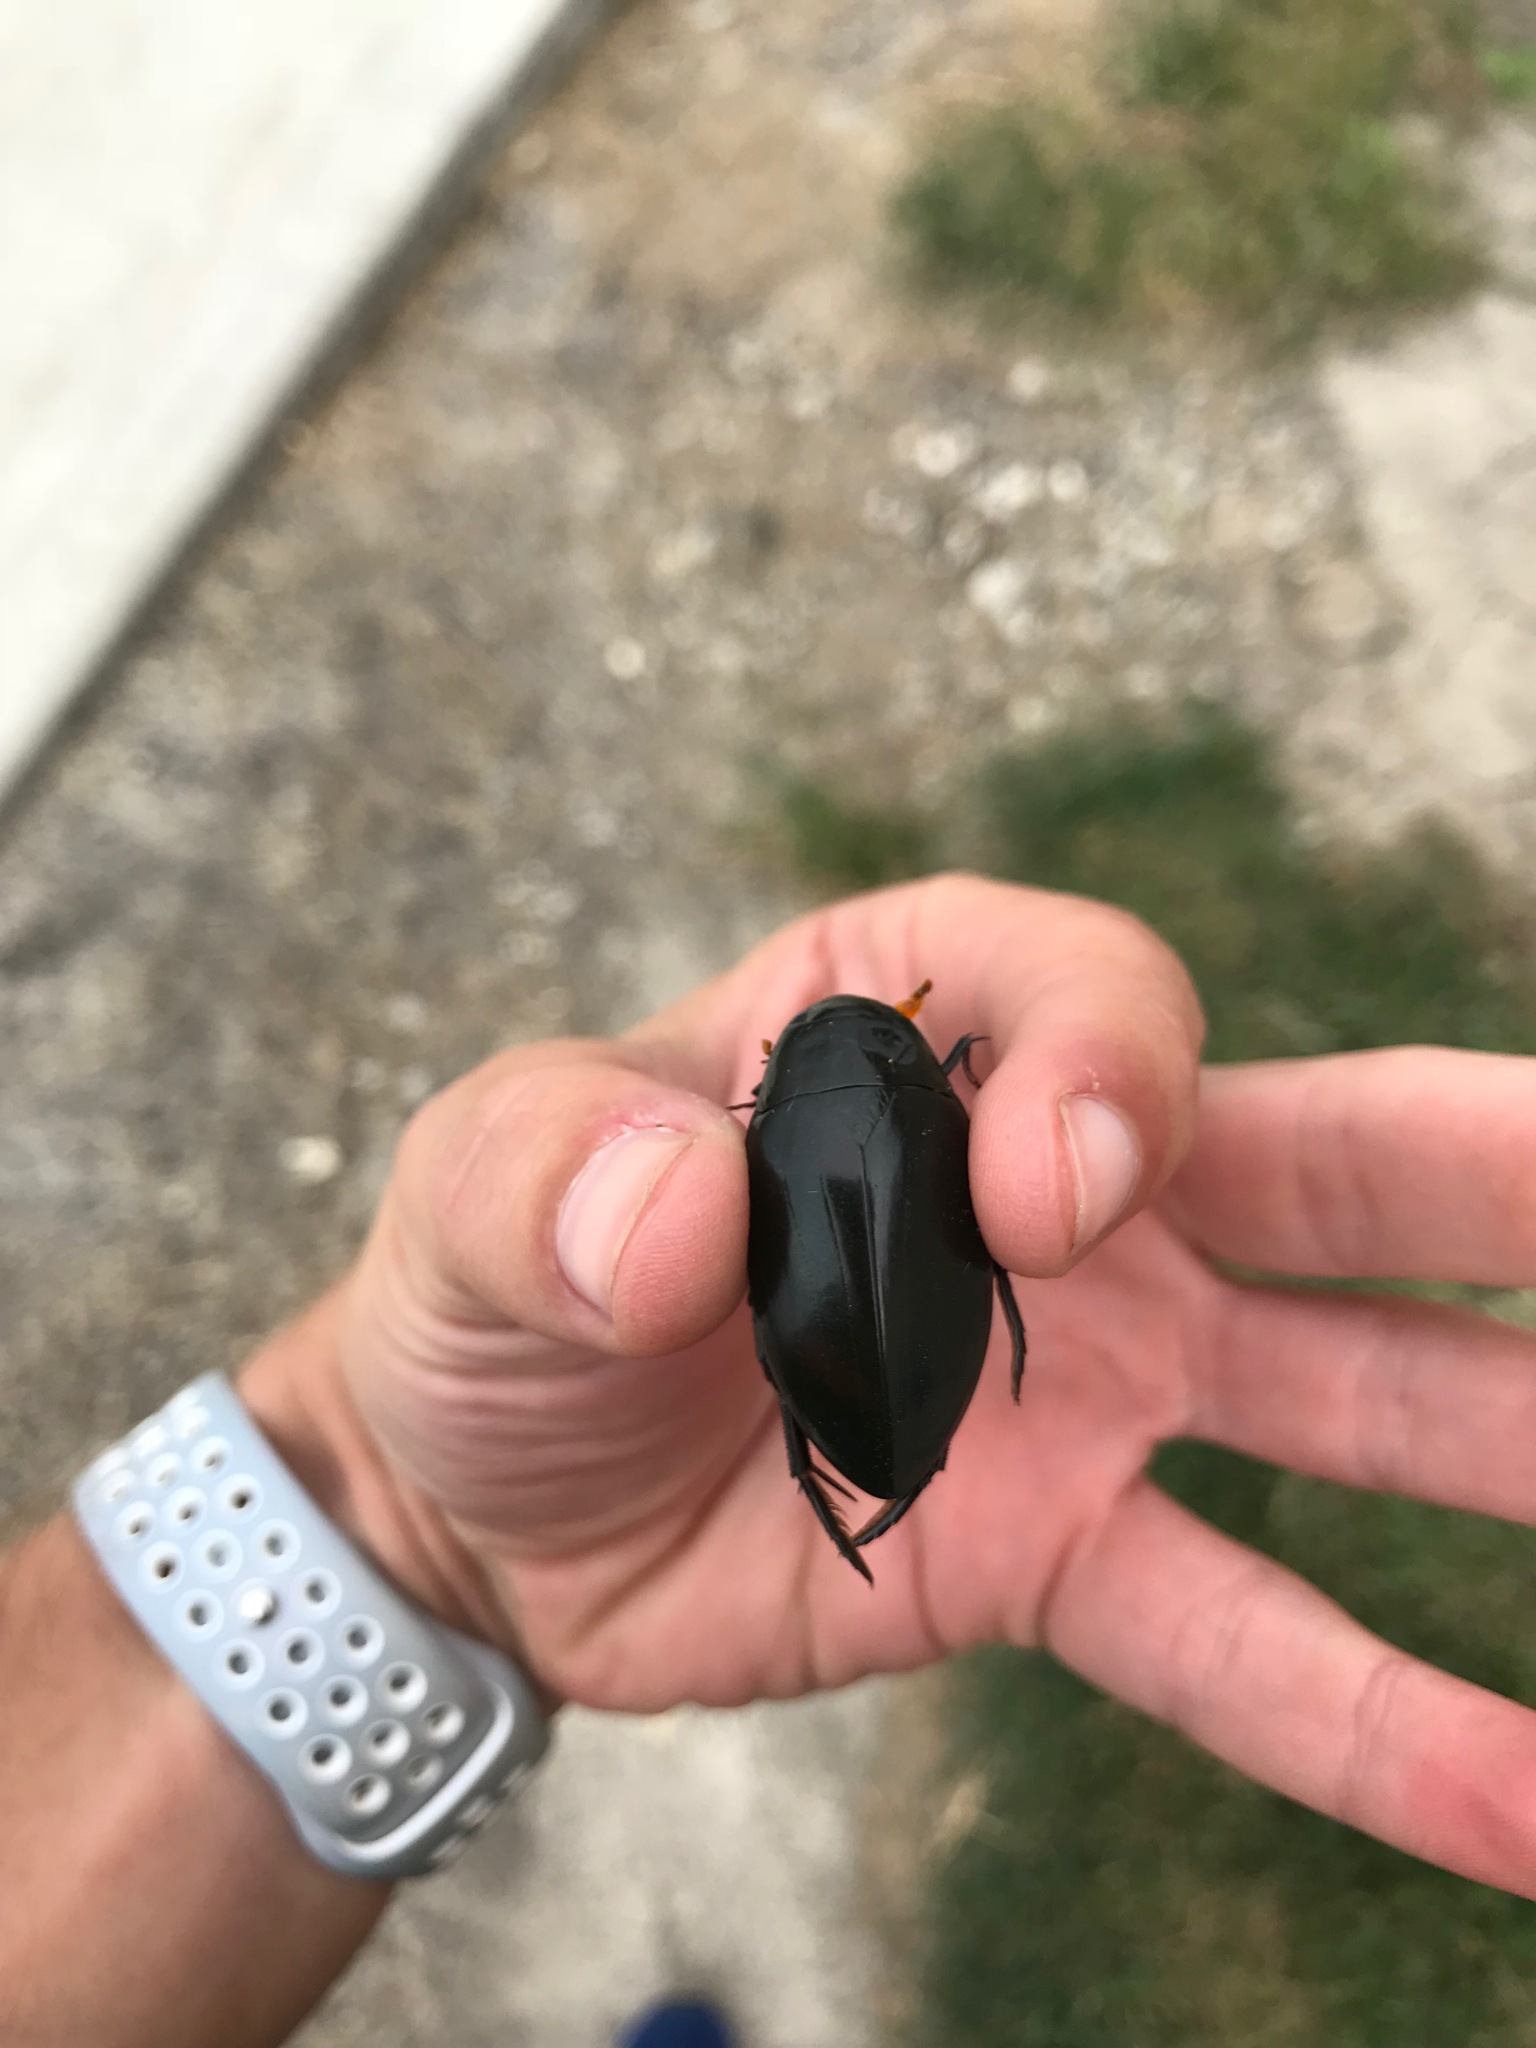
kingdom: Animalia
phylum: Arthropoda
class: Insecta
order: Coleoptera
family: Hydrophilidae
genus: Hydrophilus
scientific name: Hydrophilus triangularis
